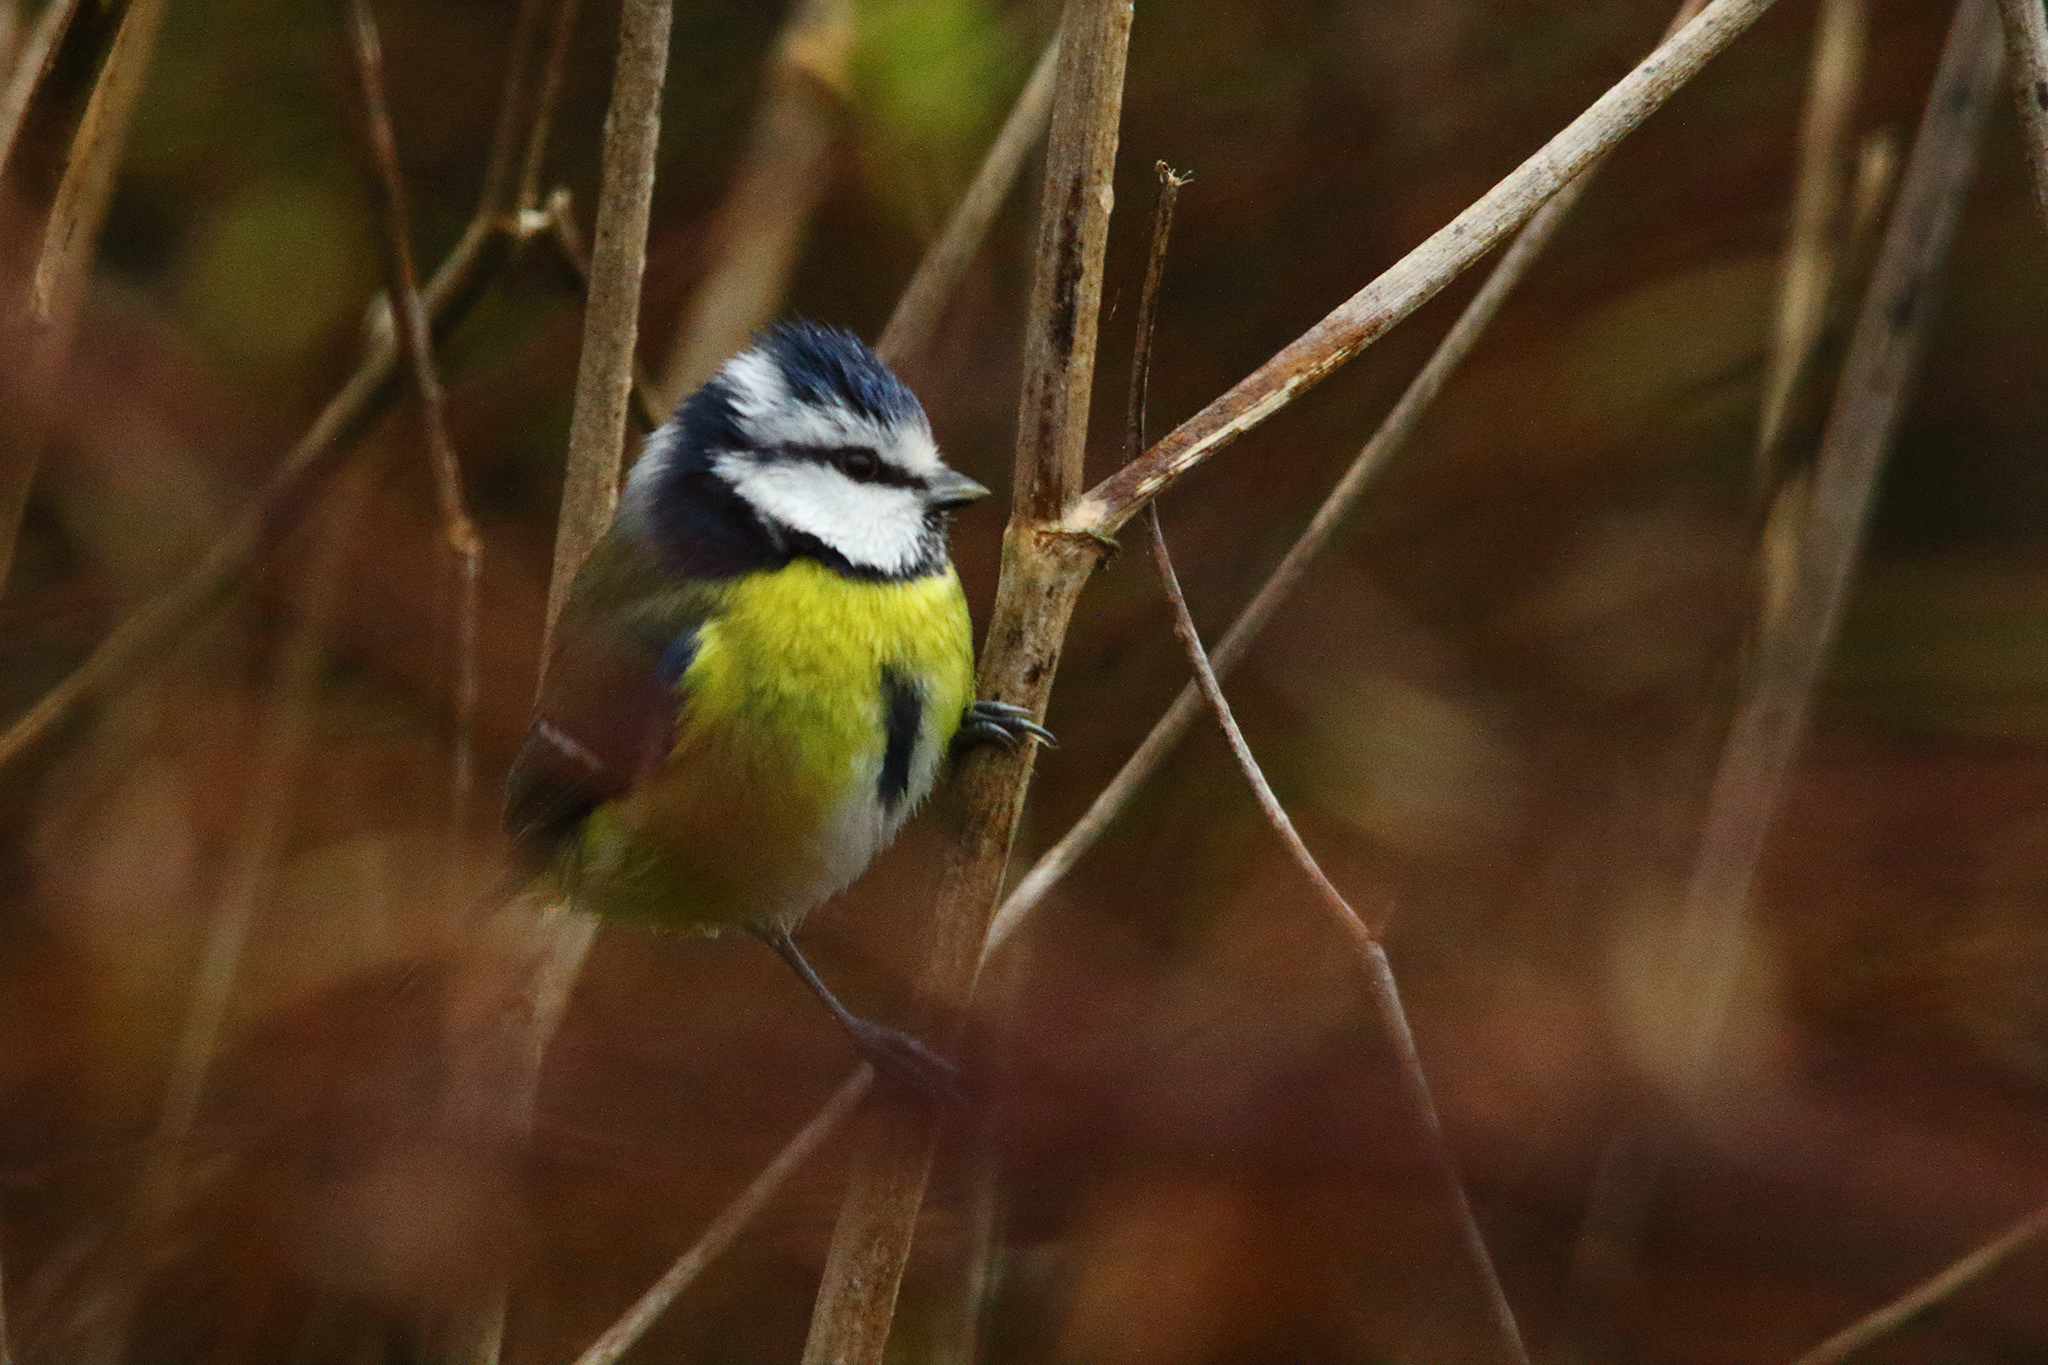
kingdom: Animalia
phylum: Chordata
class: Aves
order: Passeriformes
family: Paridae
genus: Cyanistes
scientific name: Cyanistes caeruleus
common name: Eurasian blue tit
